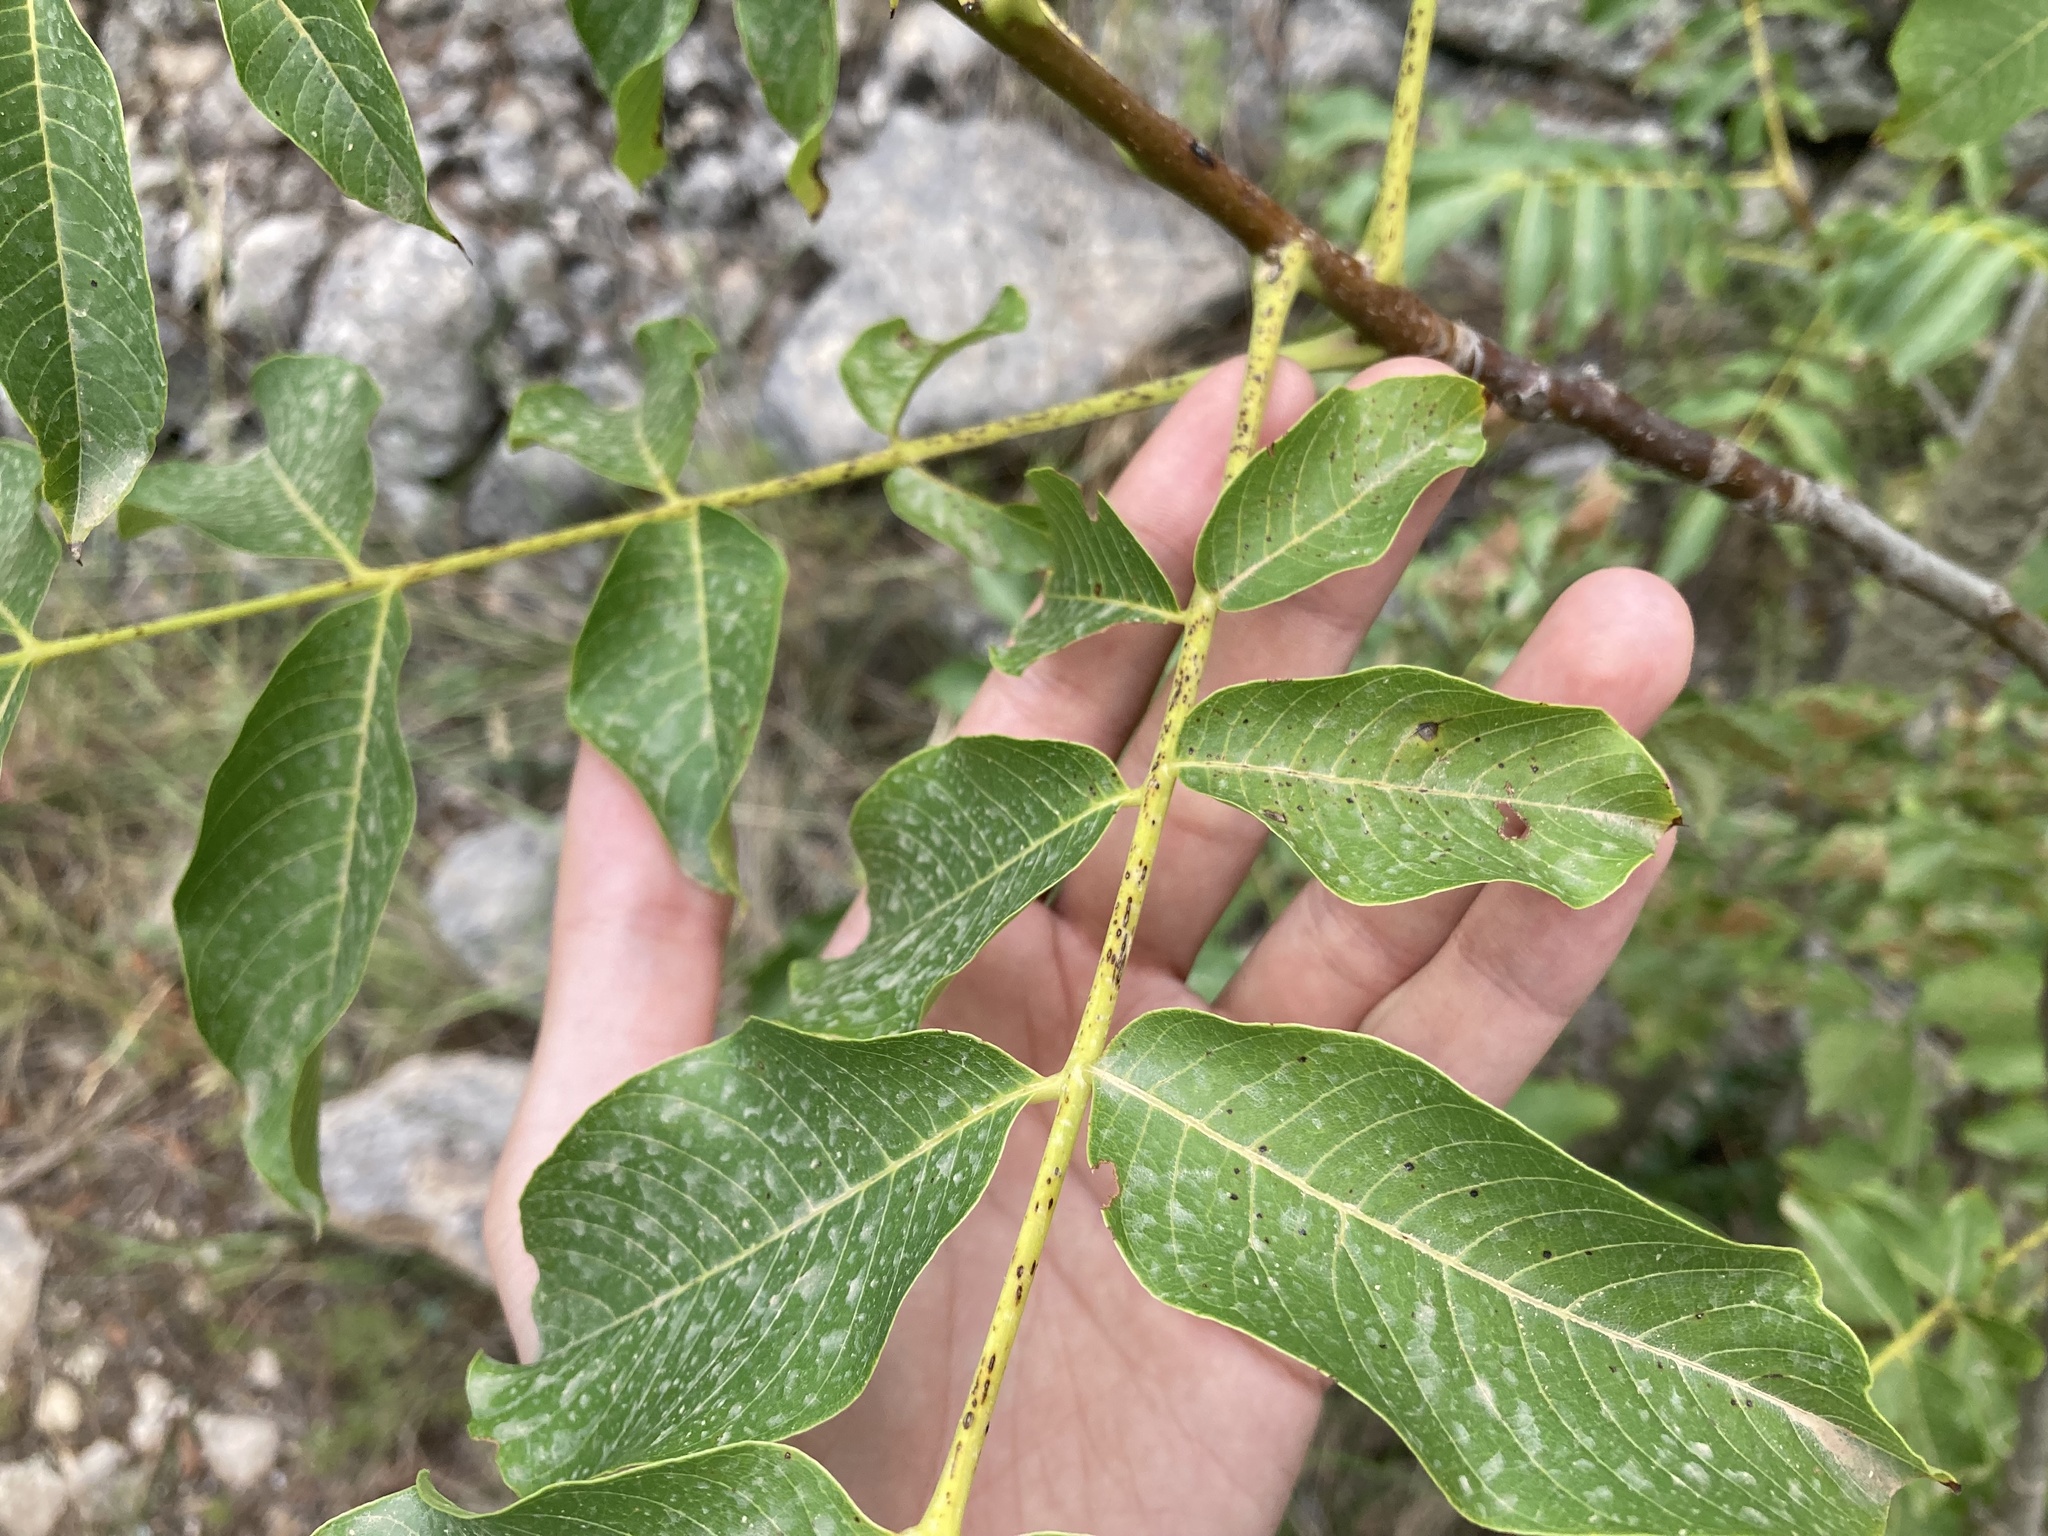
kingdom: Plantae
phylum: Tracheophyta
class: Magnoliopsida
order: Fagales
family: Juglandaceae
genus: Juglans
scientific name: Juglans regia
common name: Walnut
